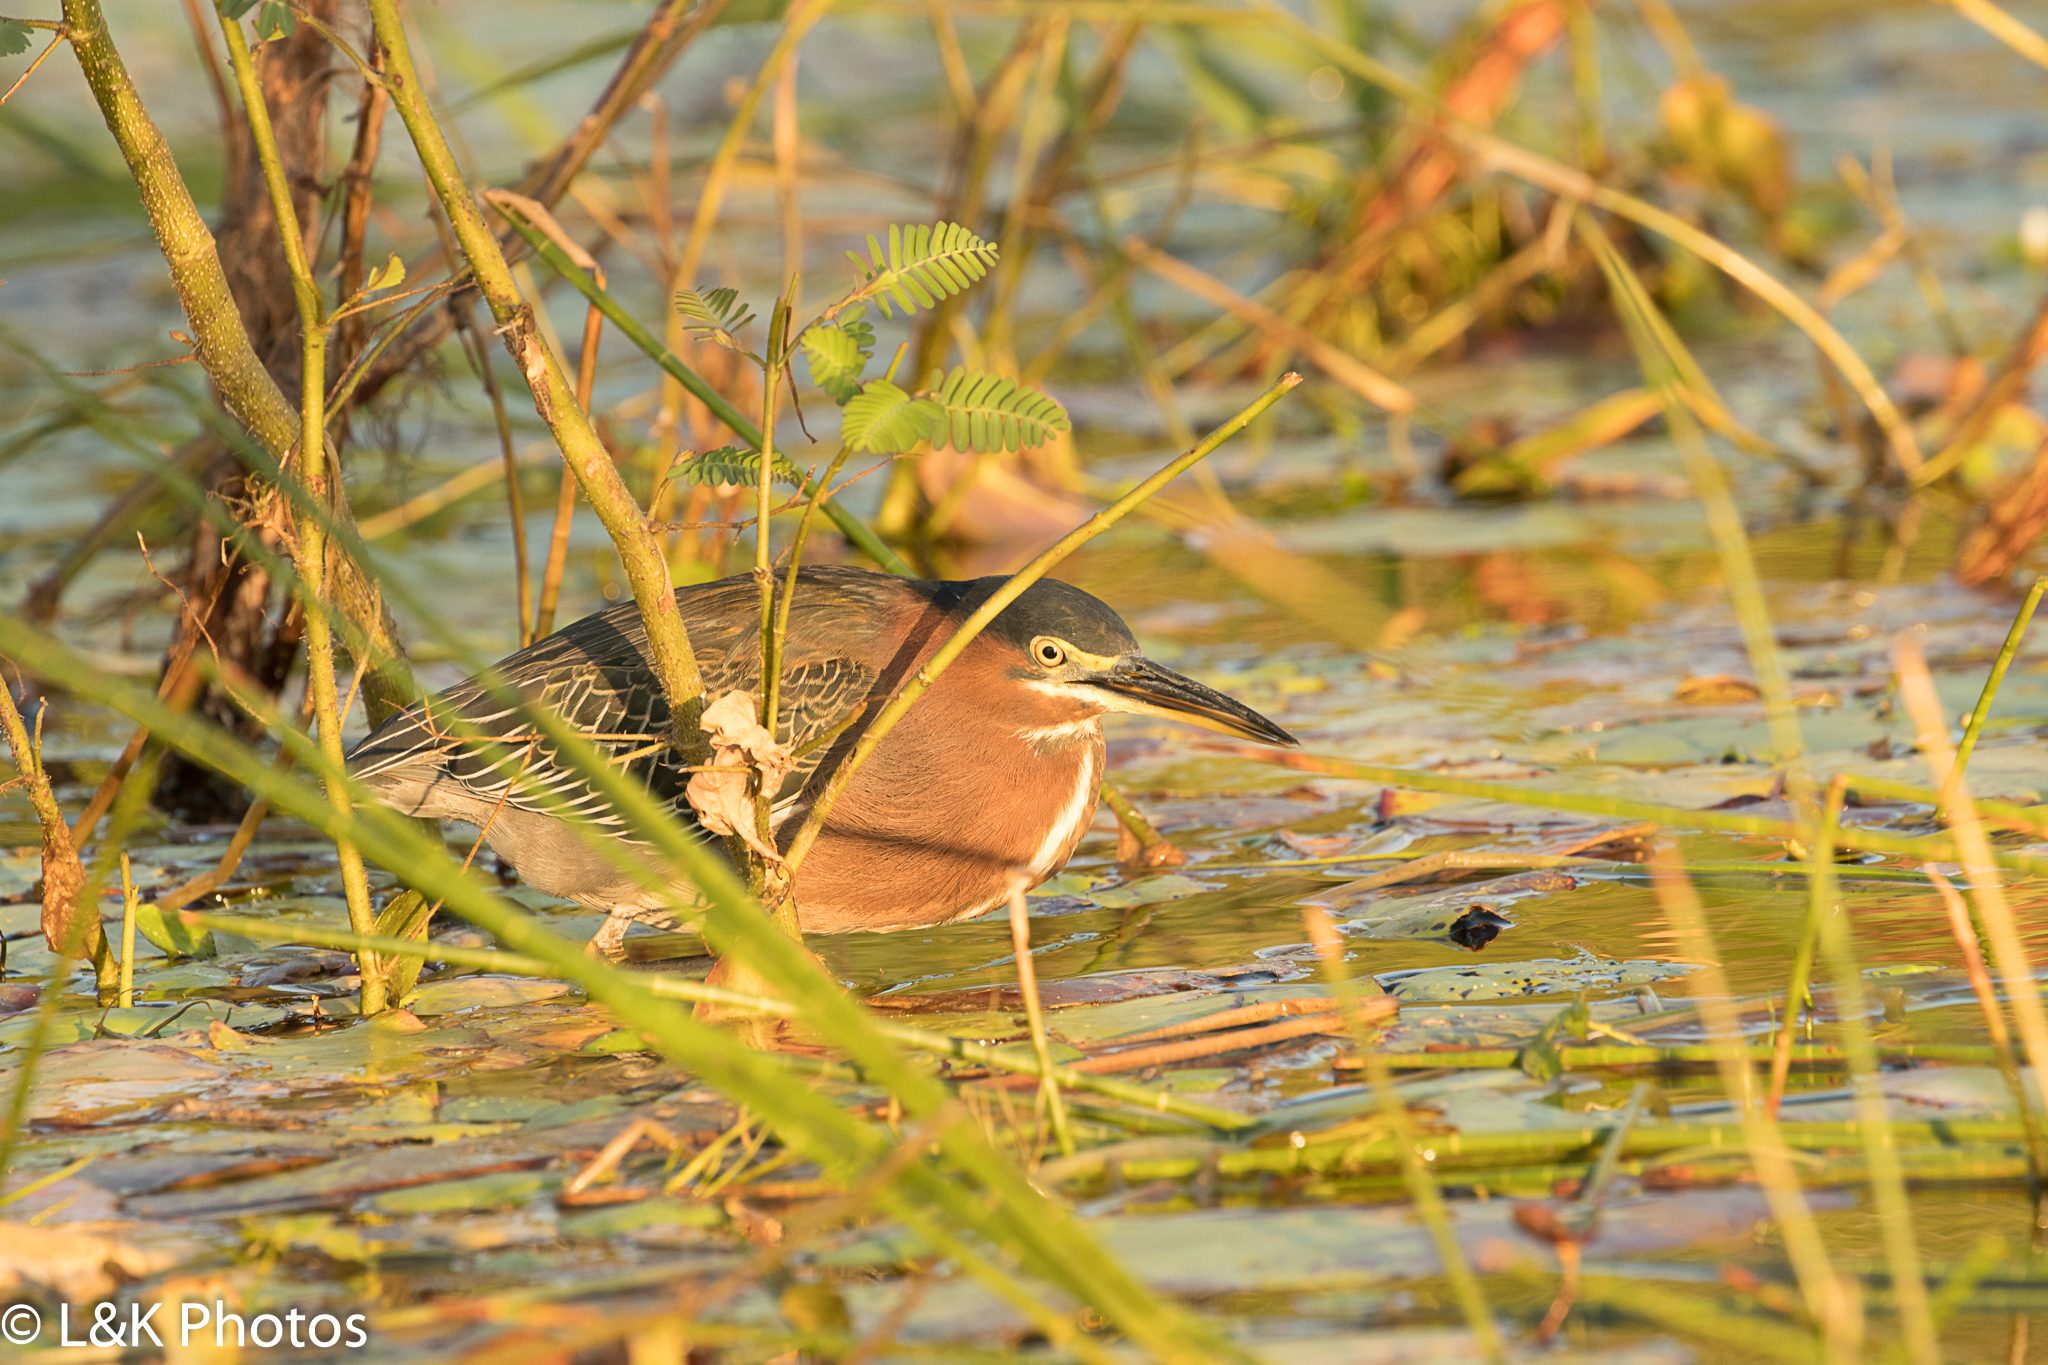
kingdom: Animalia
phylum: Chordata
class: Aves
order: Pelecaniformes
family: Ardeidae
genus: Butorides
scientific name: Butorides virescens
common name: Green heron
